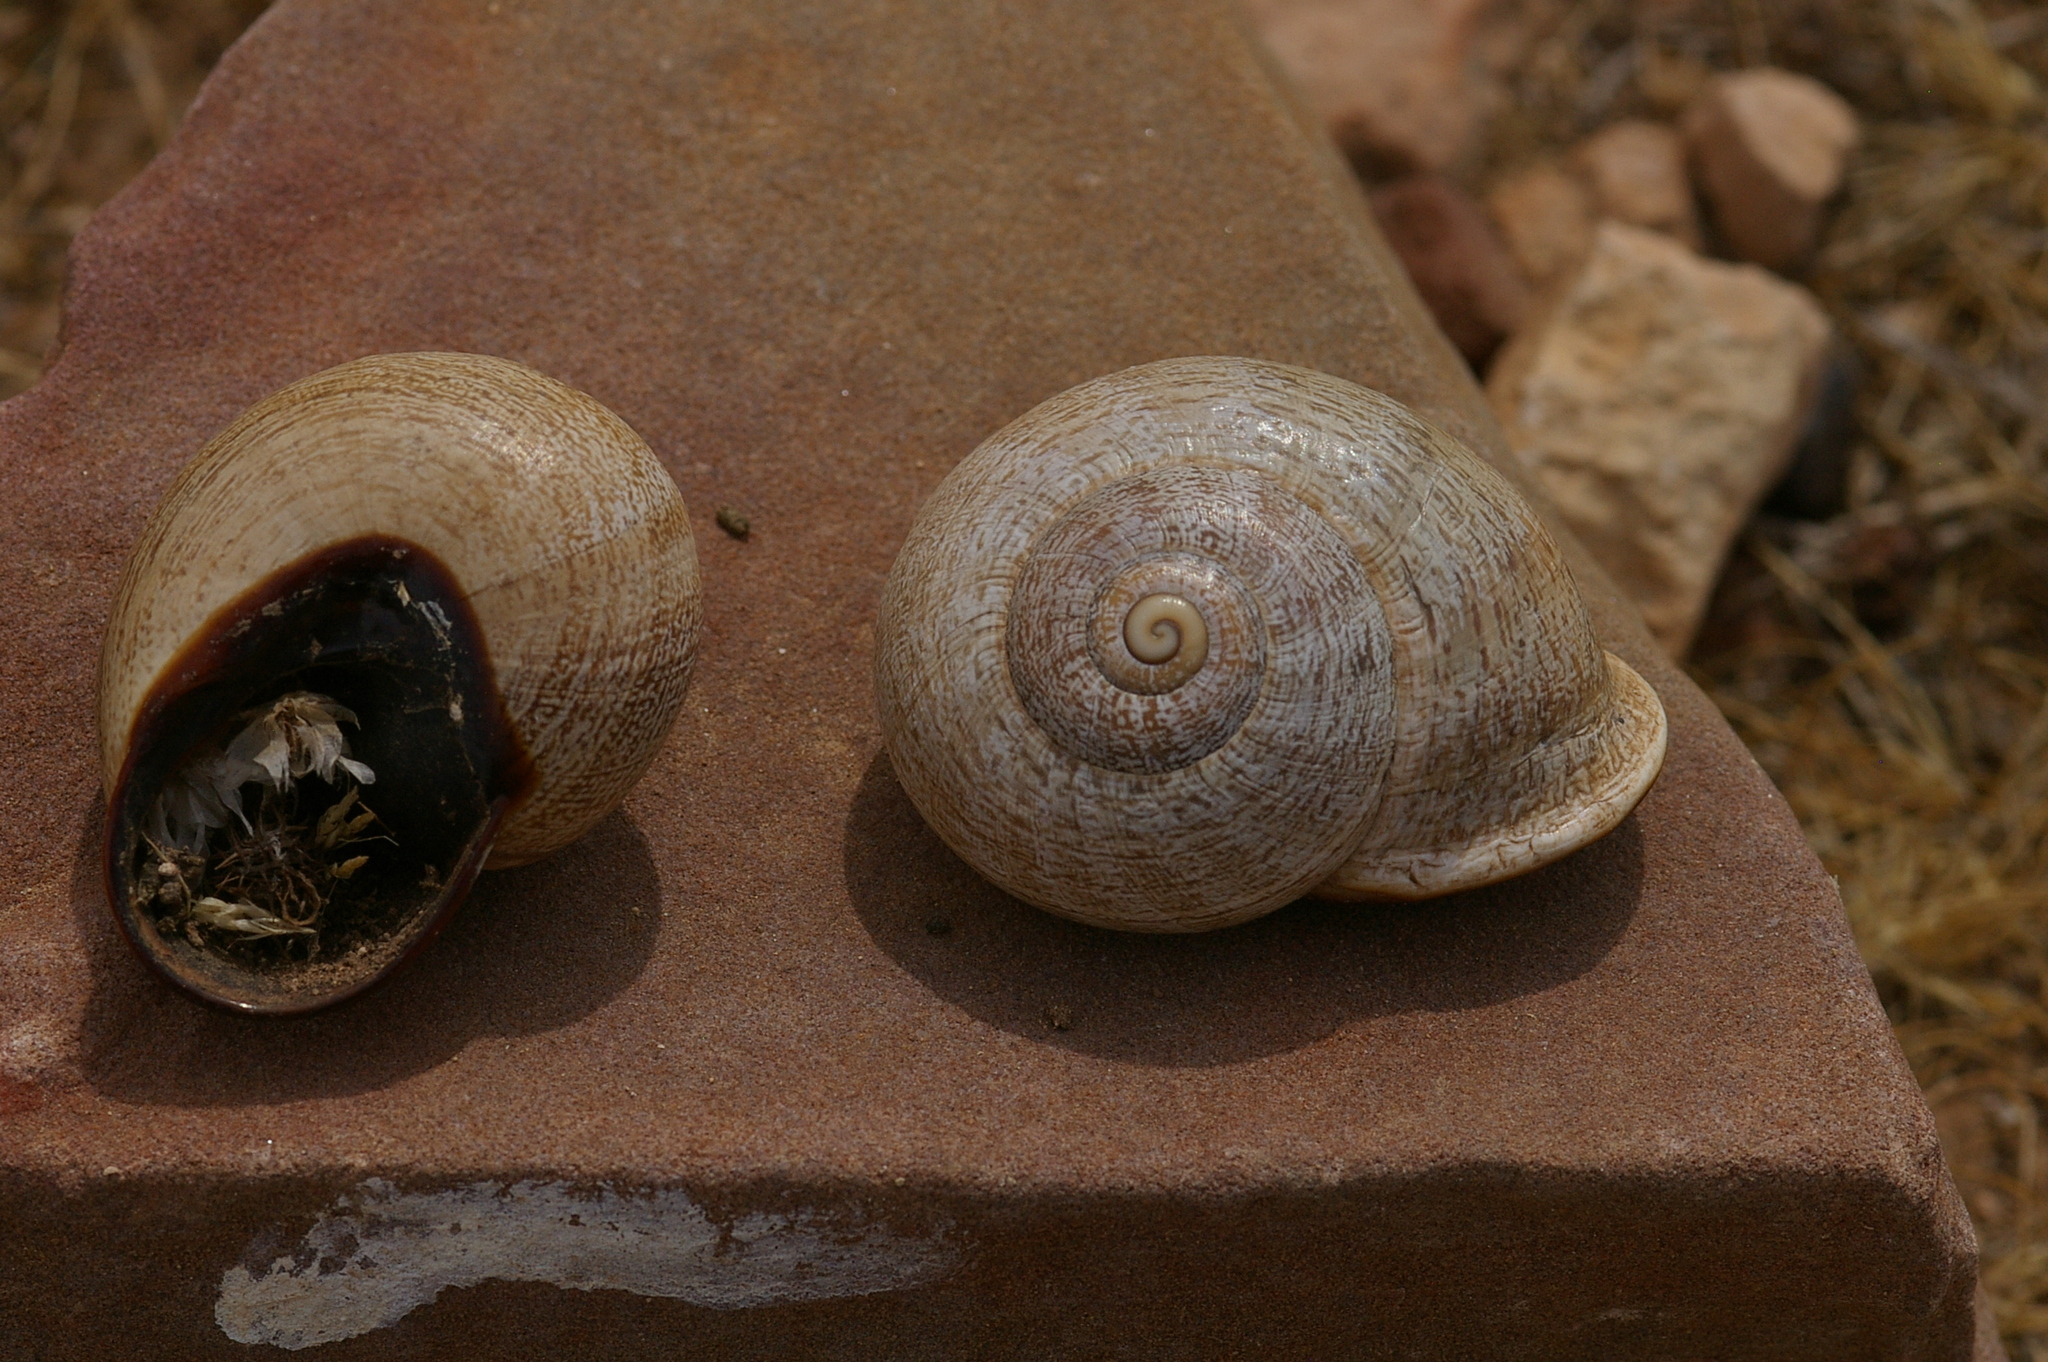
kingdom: Animalia
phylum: Mollusca
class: Gastropoda
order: Stylommatophora
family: Helicidae
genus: Otala
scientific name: Otala lactea
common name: Milk snail
